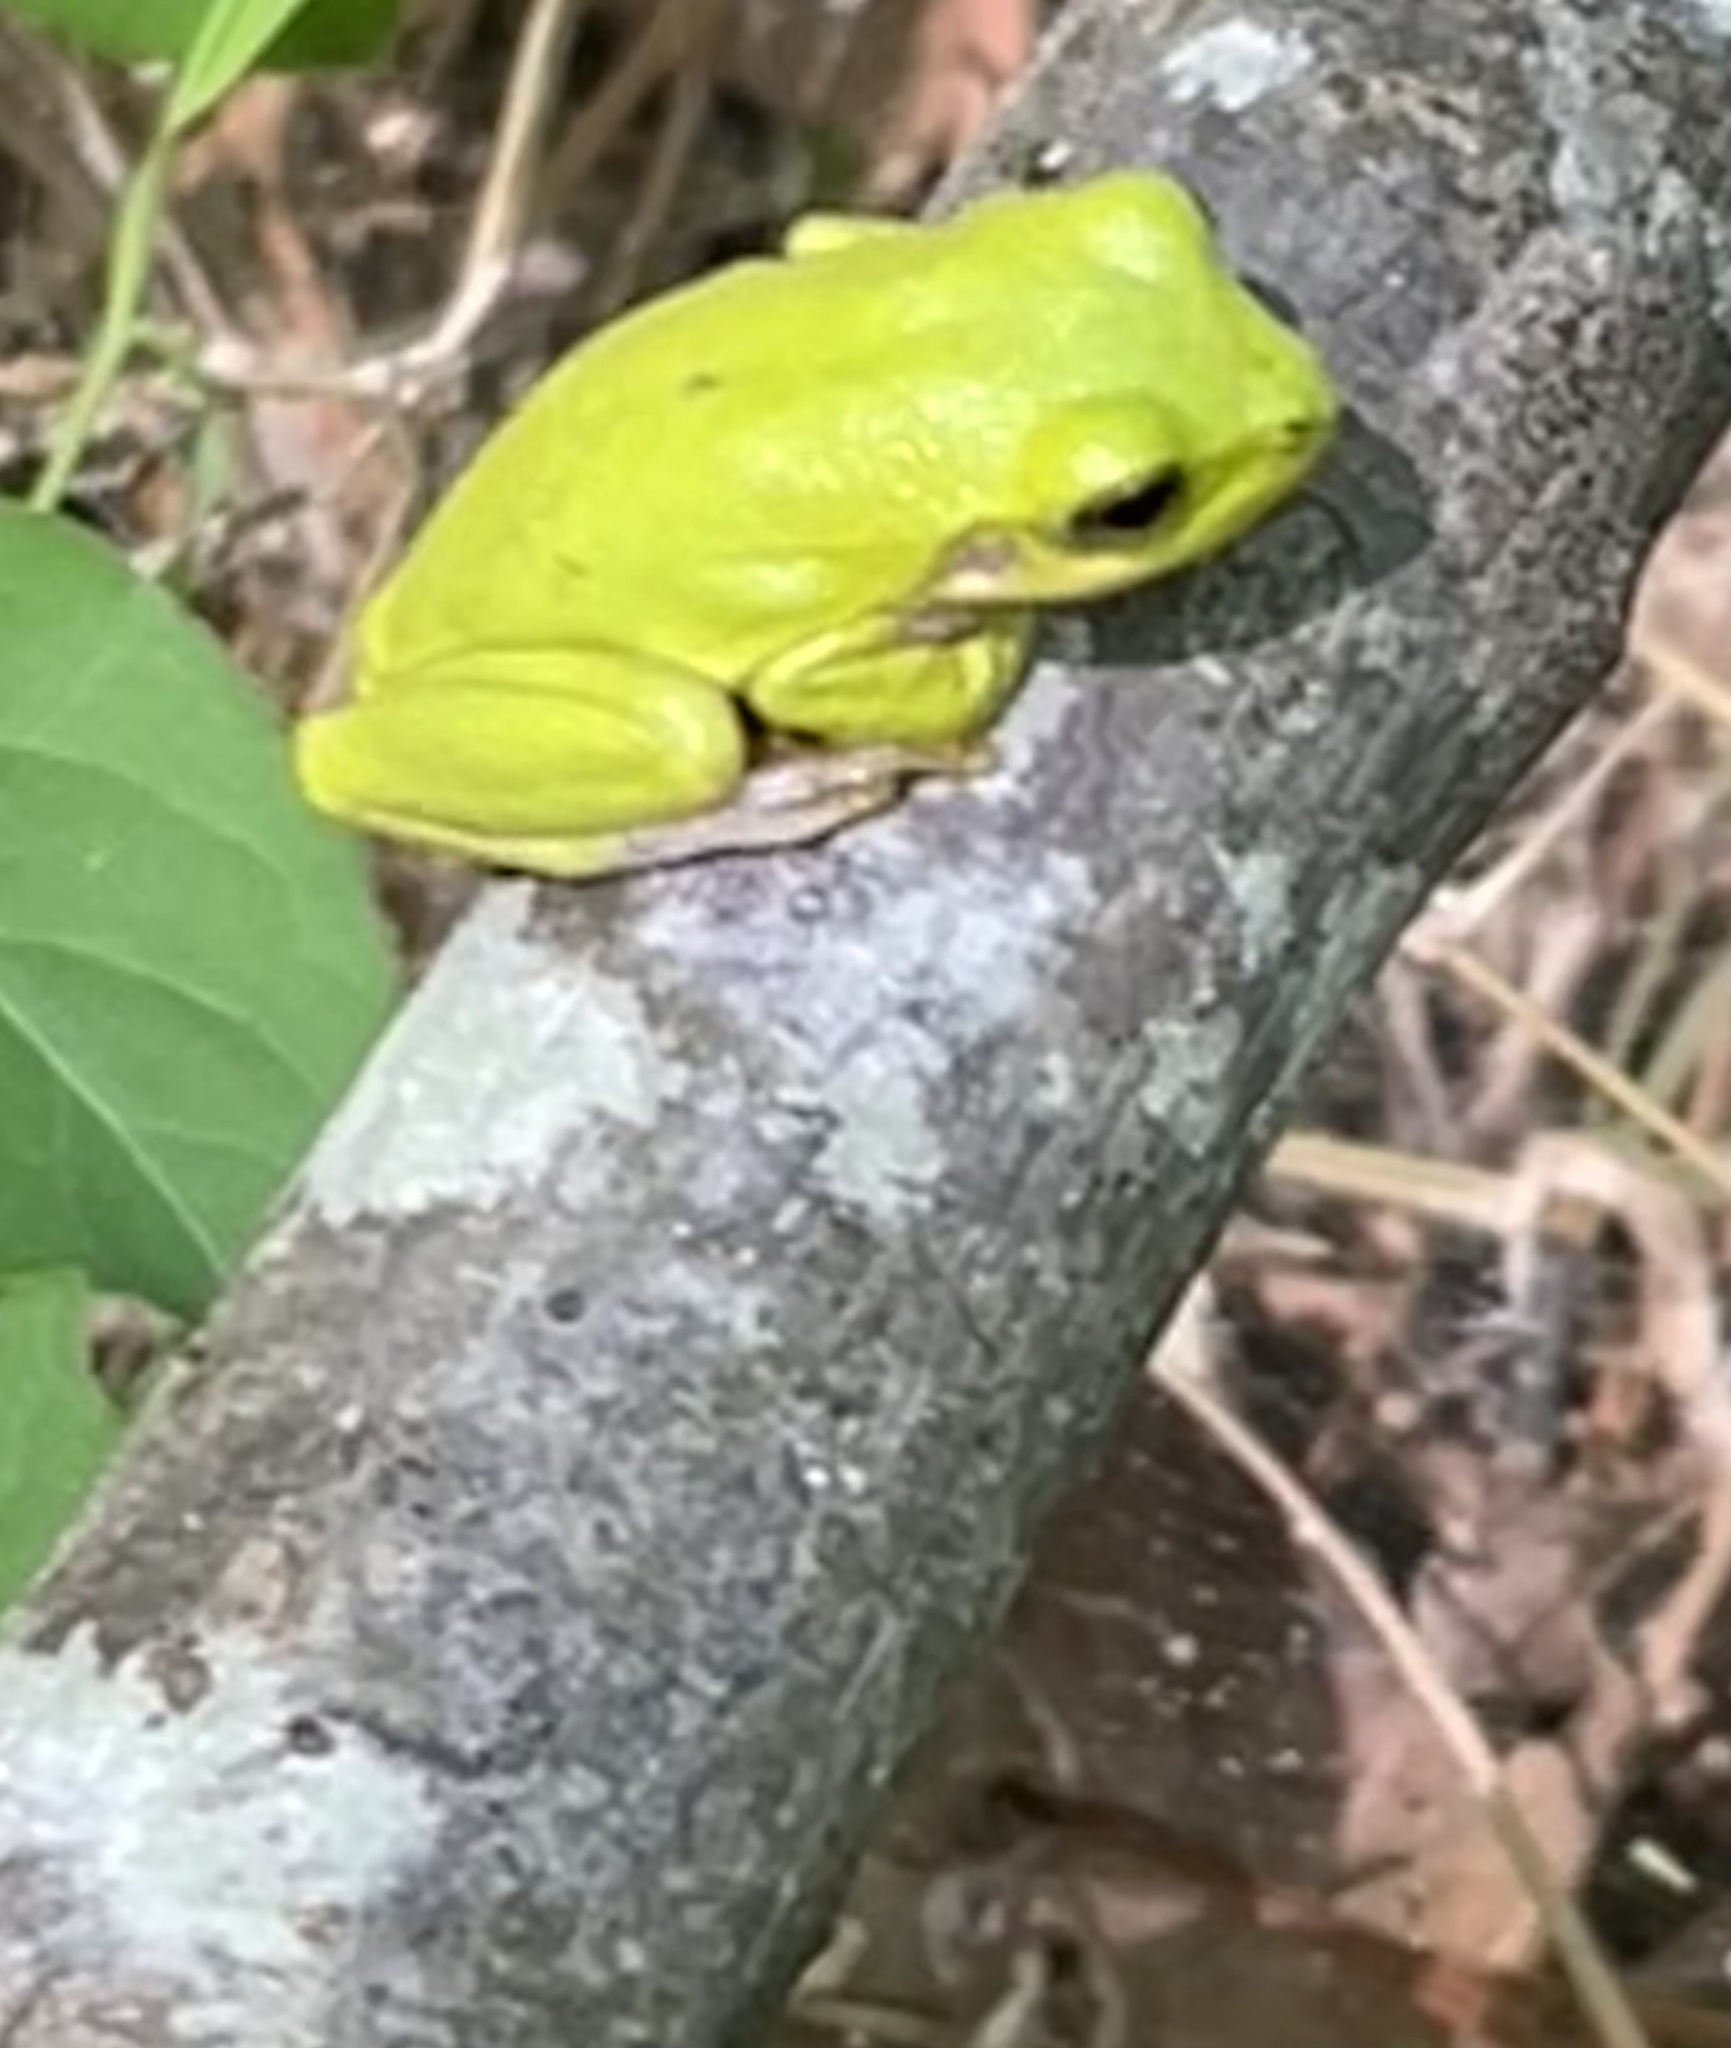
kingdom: Animalia
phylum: Chordata
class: Amphibia
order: Anura
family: Hylidae
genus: Dryophytes
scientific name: Dryophytes squirellus
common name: Squirrel treefrog
